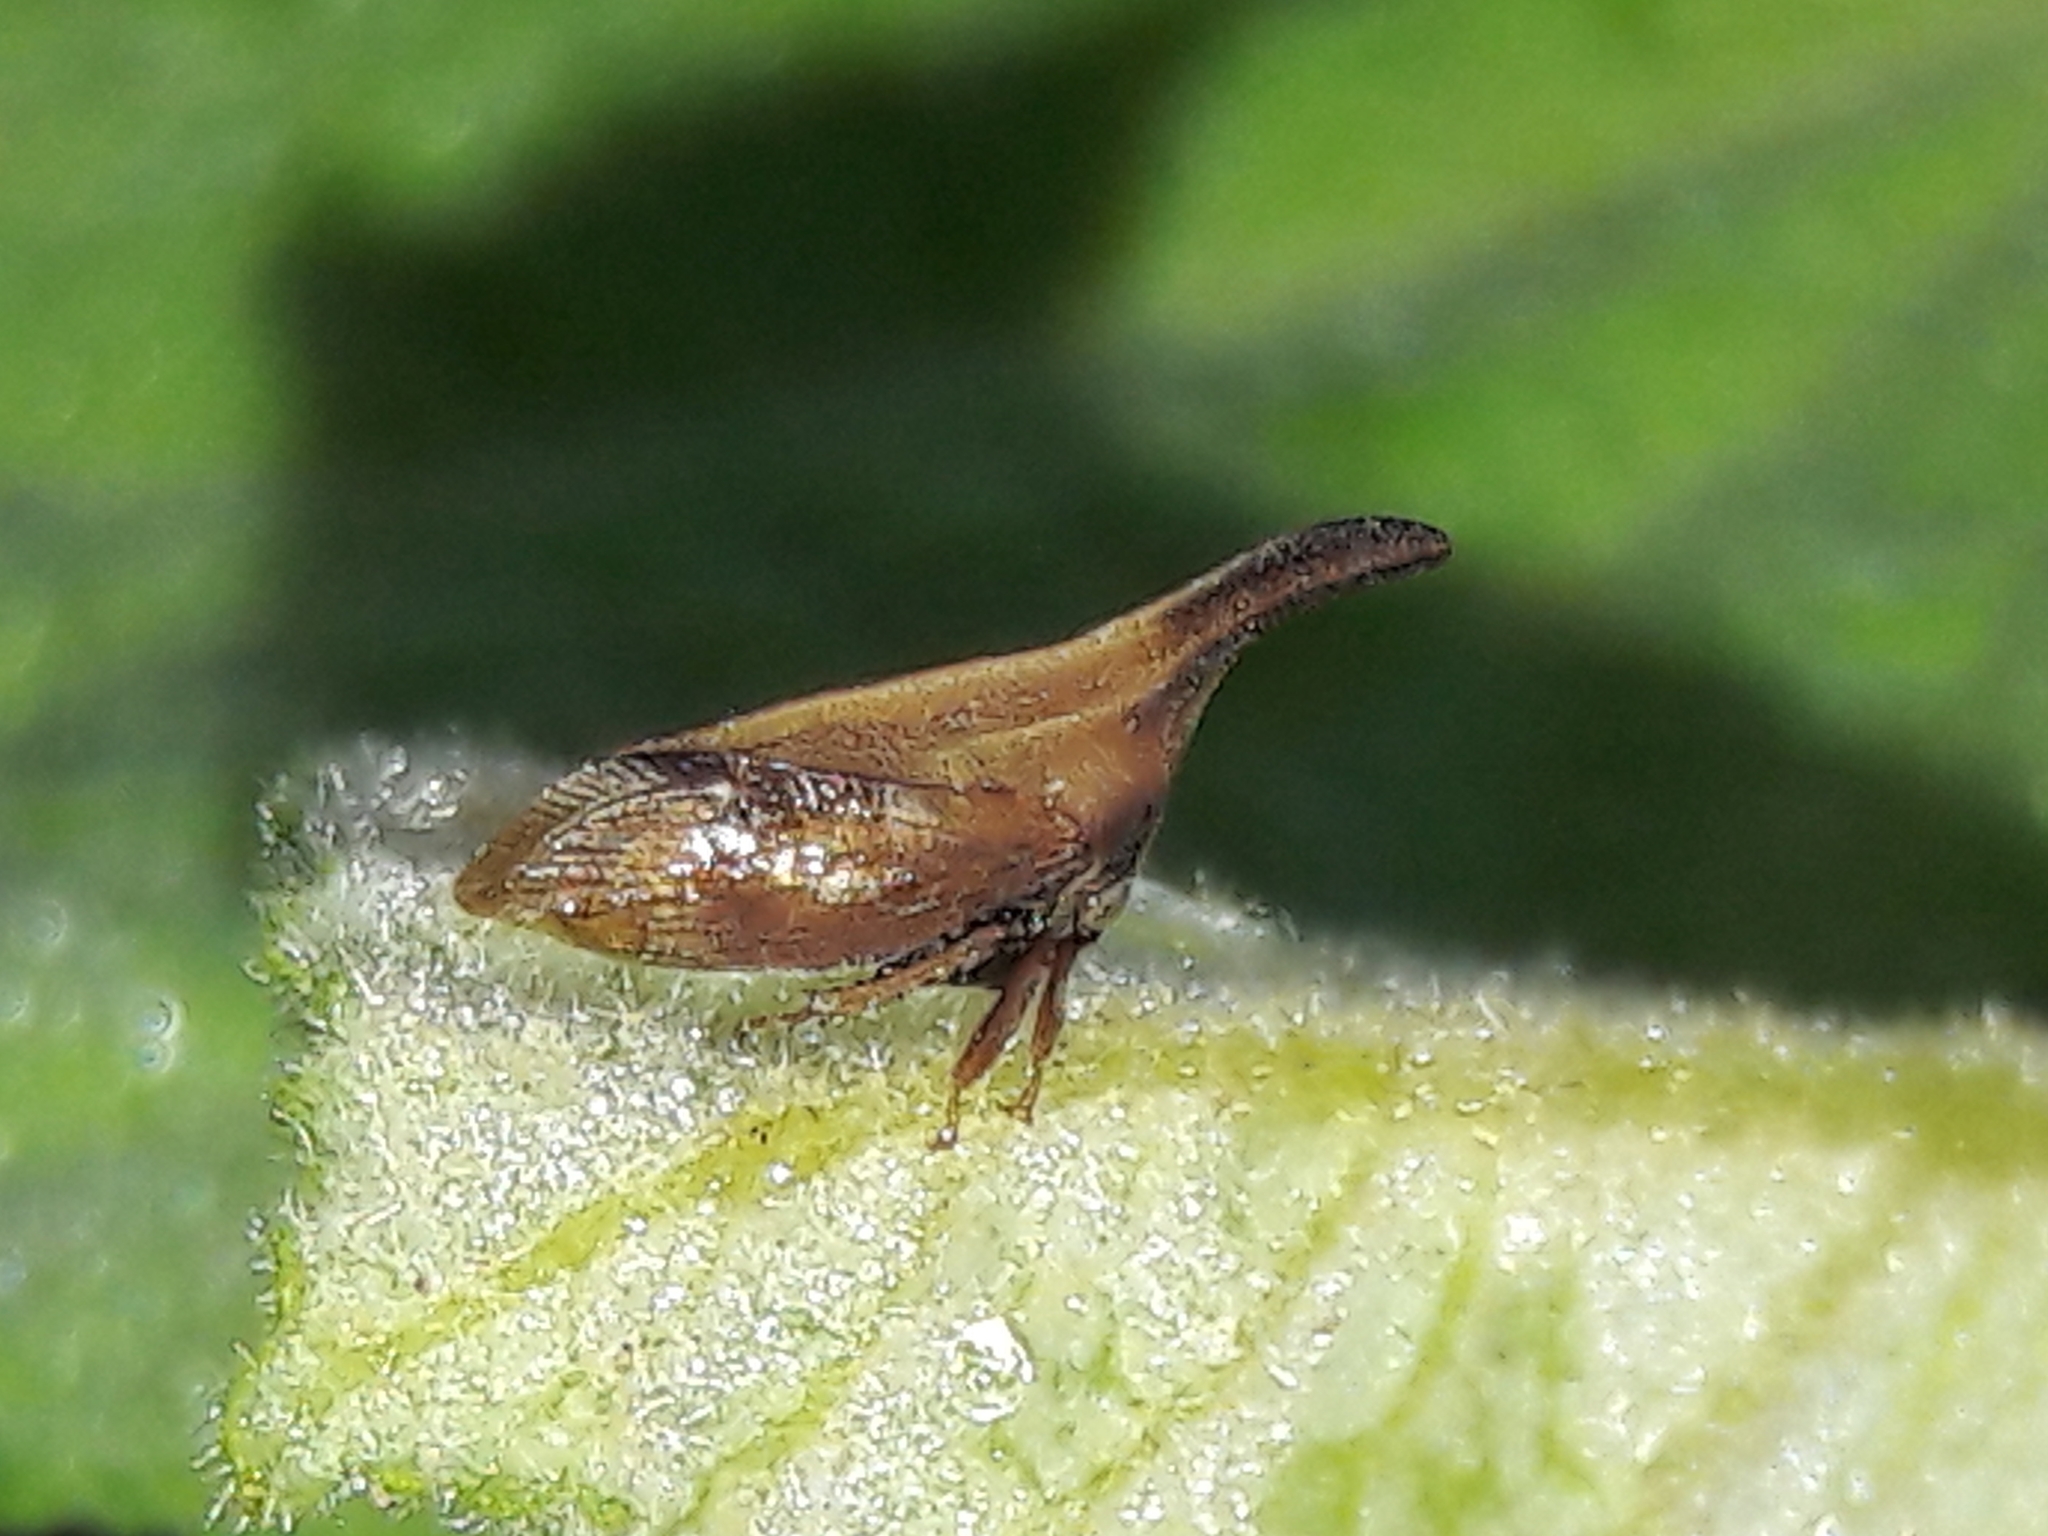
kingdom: Animalia
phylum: Arthropoda
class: Insecta
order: Hemiptera
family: Membracidae
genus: Enchenopa
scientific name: Enchenopa gracilis
